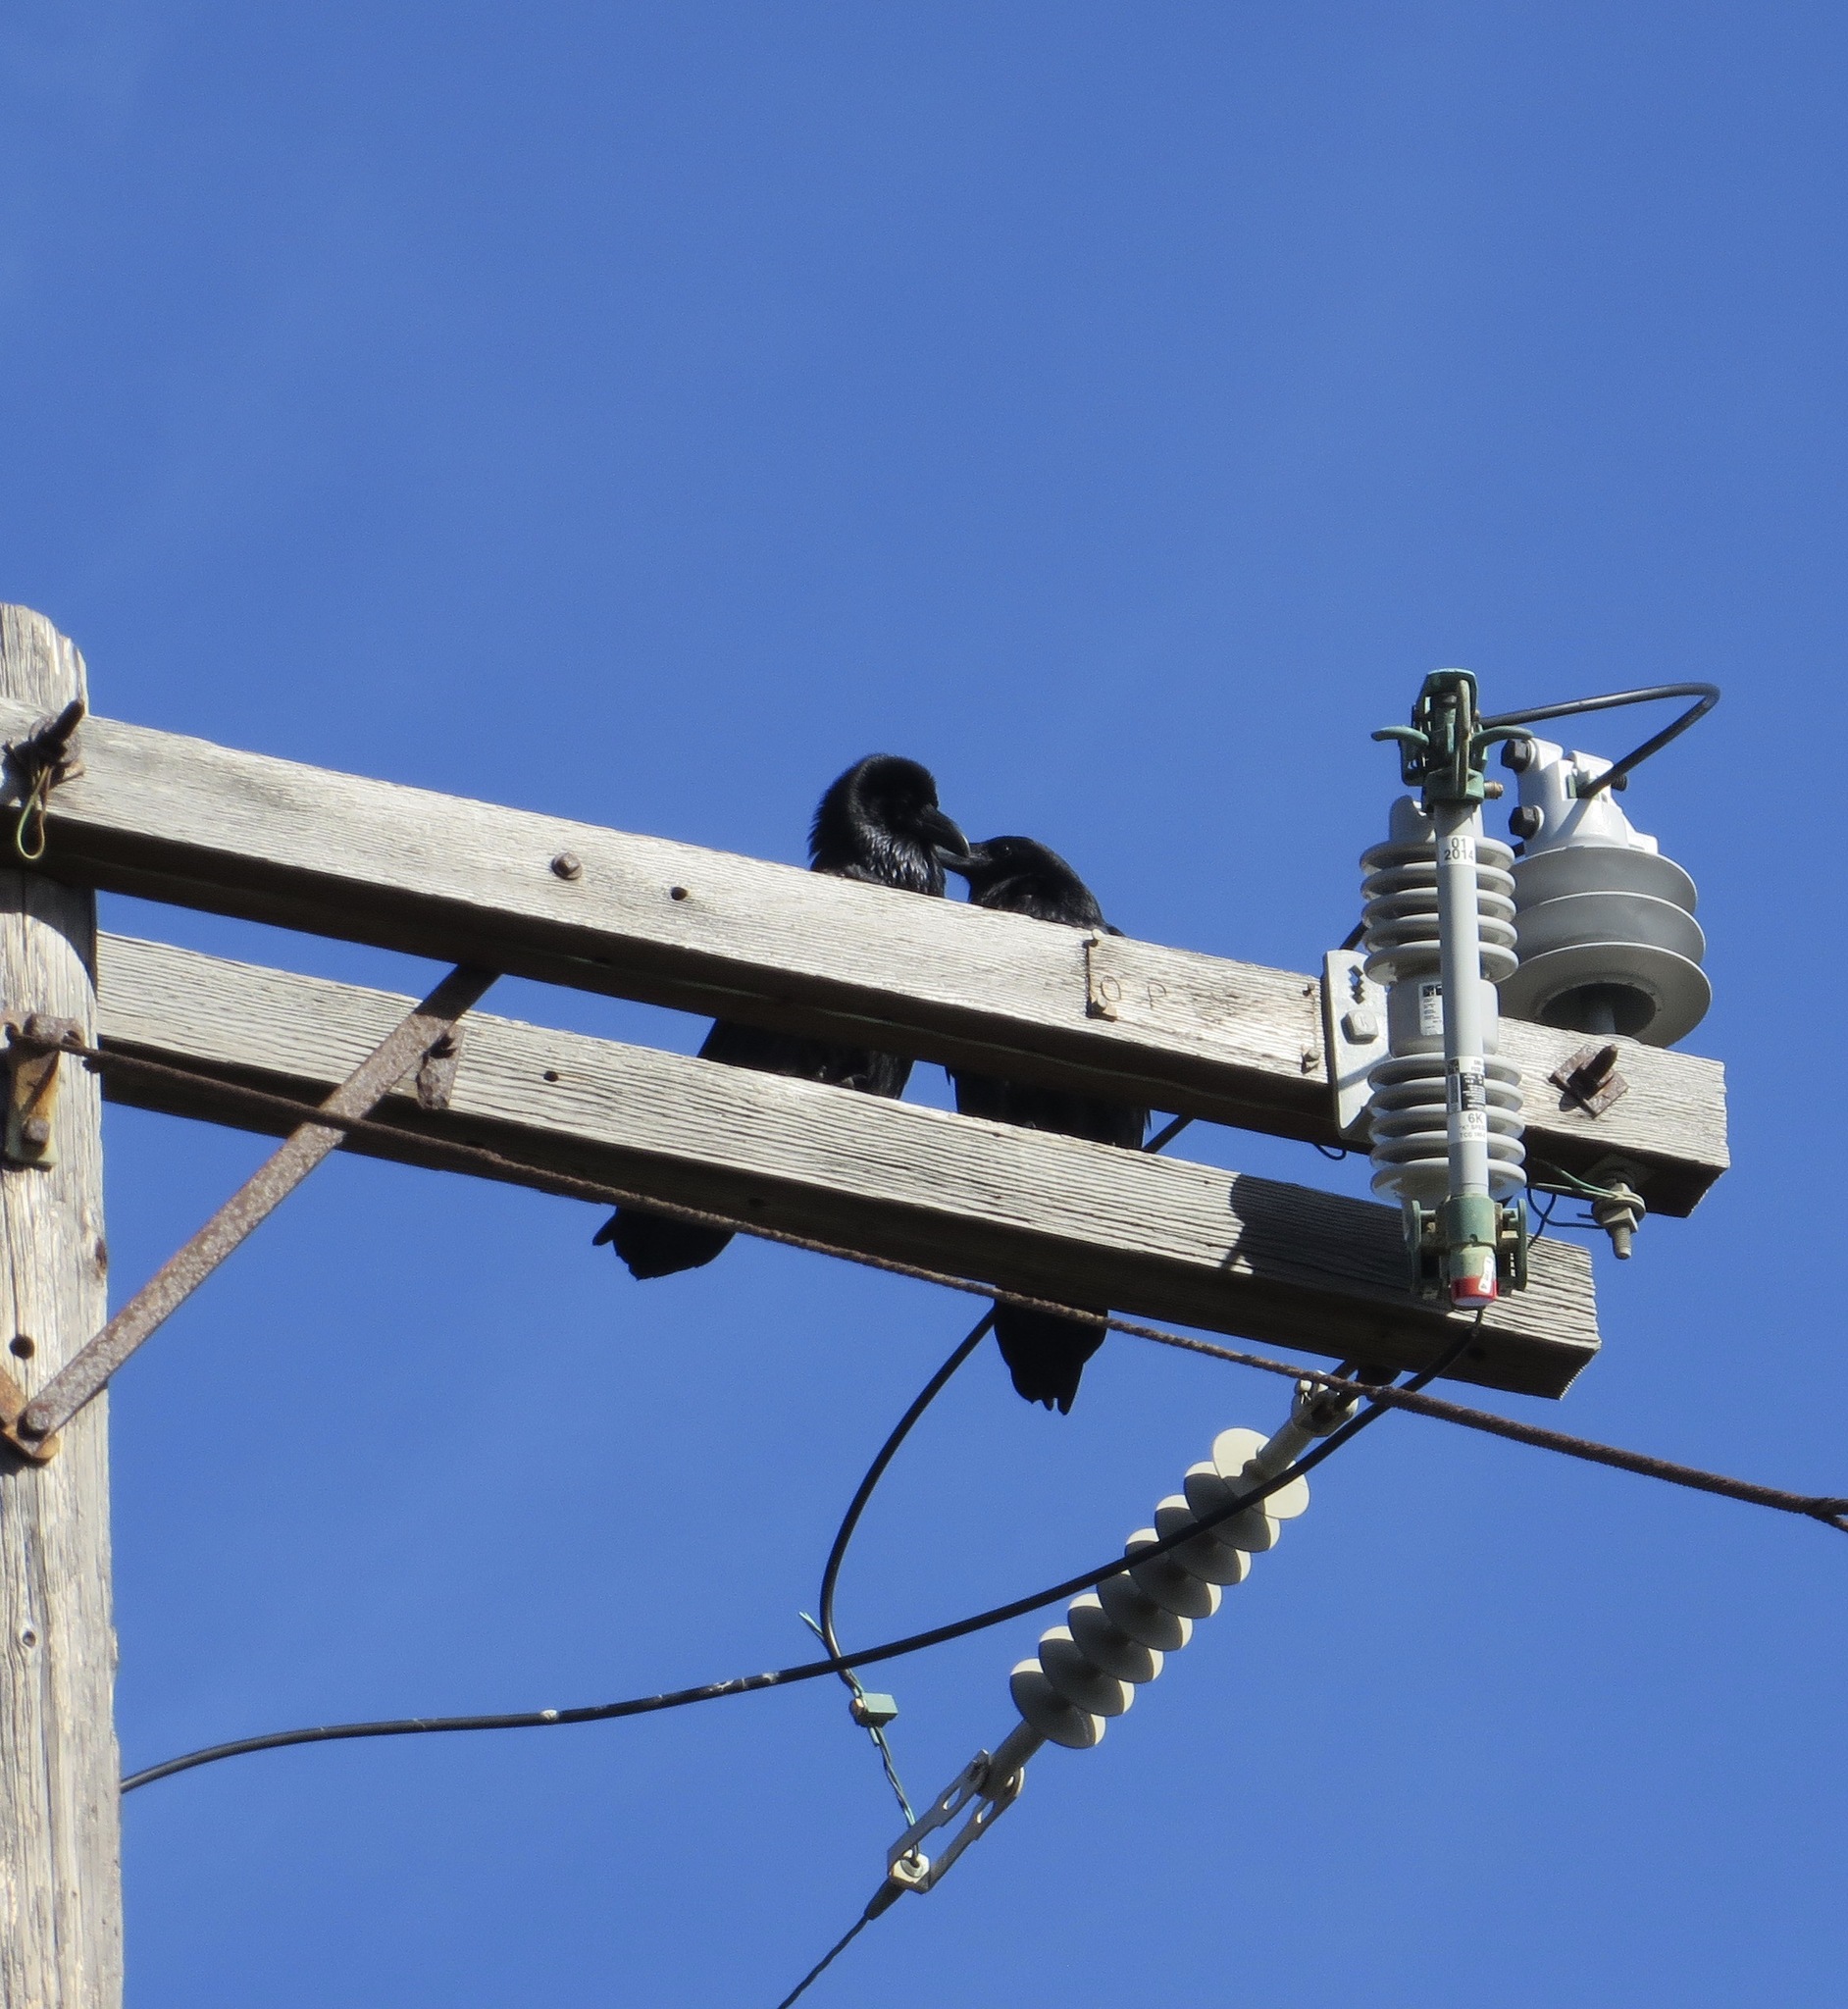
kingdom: Animalia
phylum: Chordata
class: Aves
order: Passeriformes
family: Corvidae
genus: Corvus
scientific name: Corvus corax
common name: Common raven
